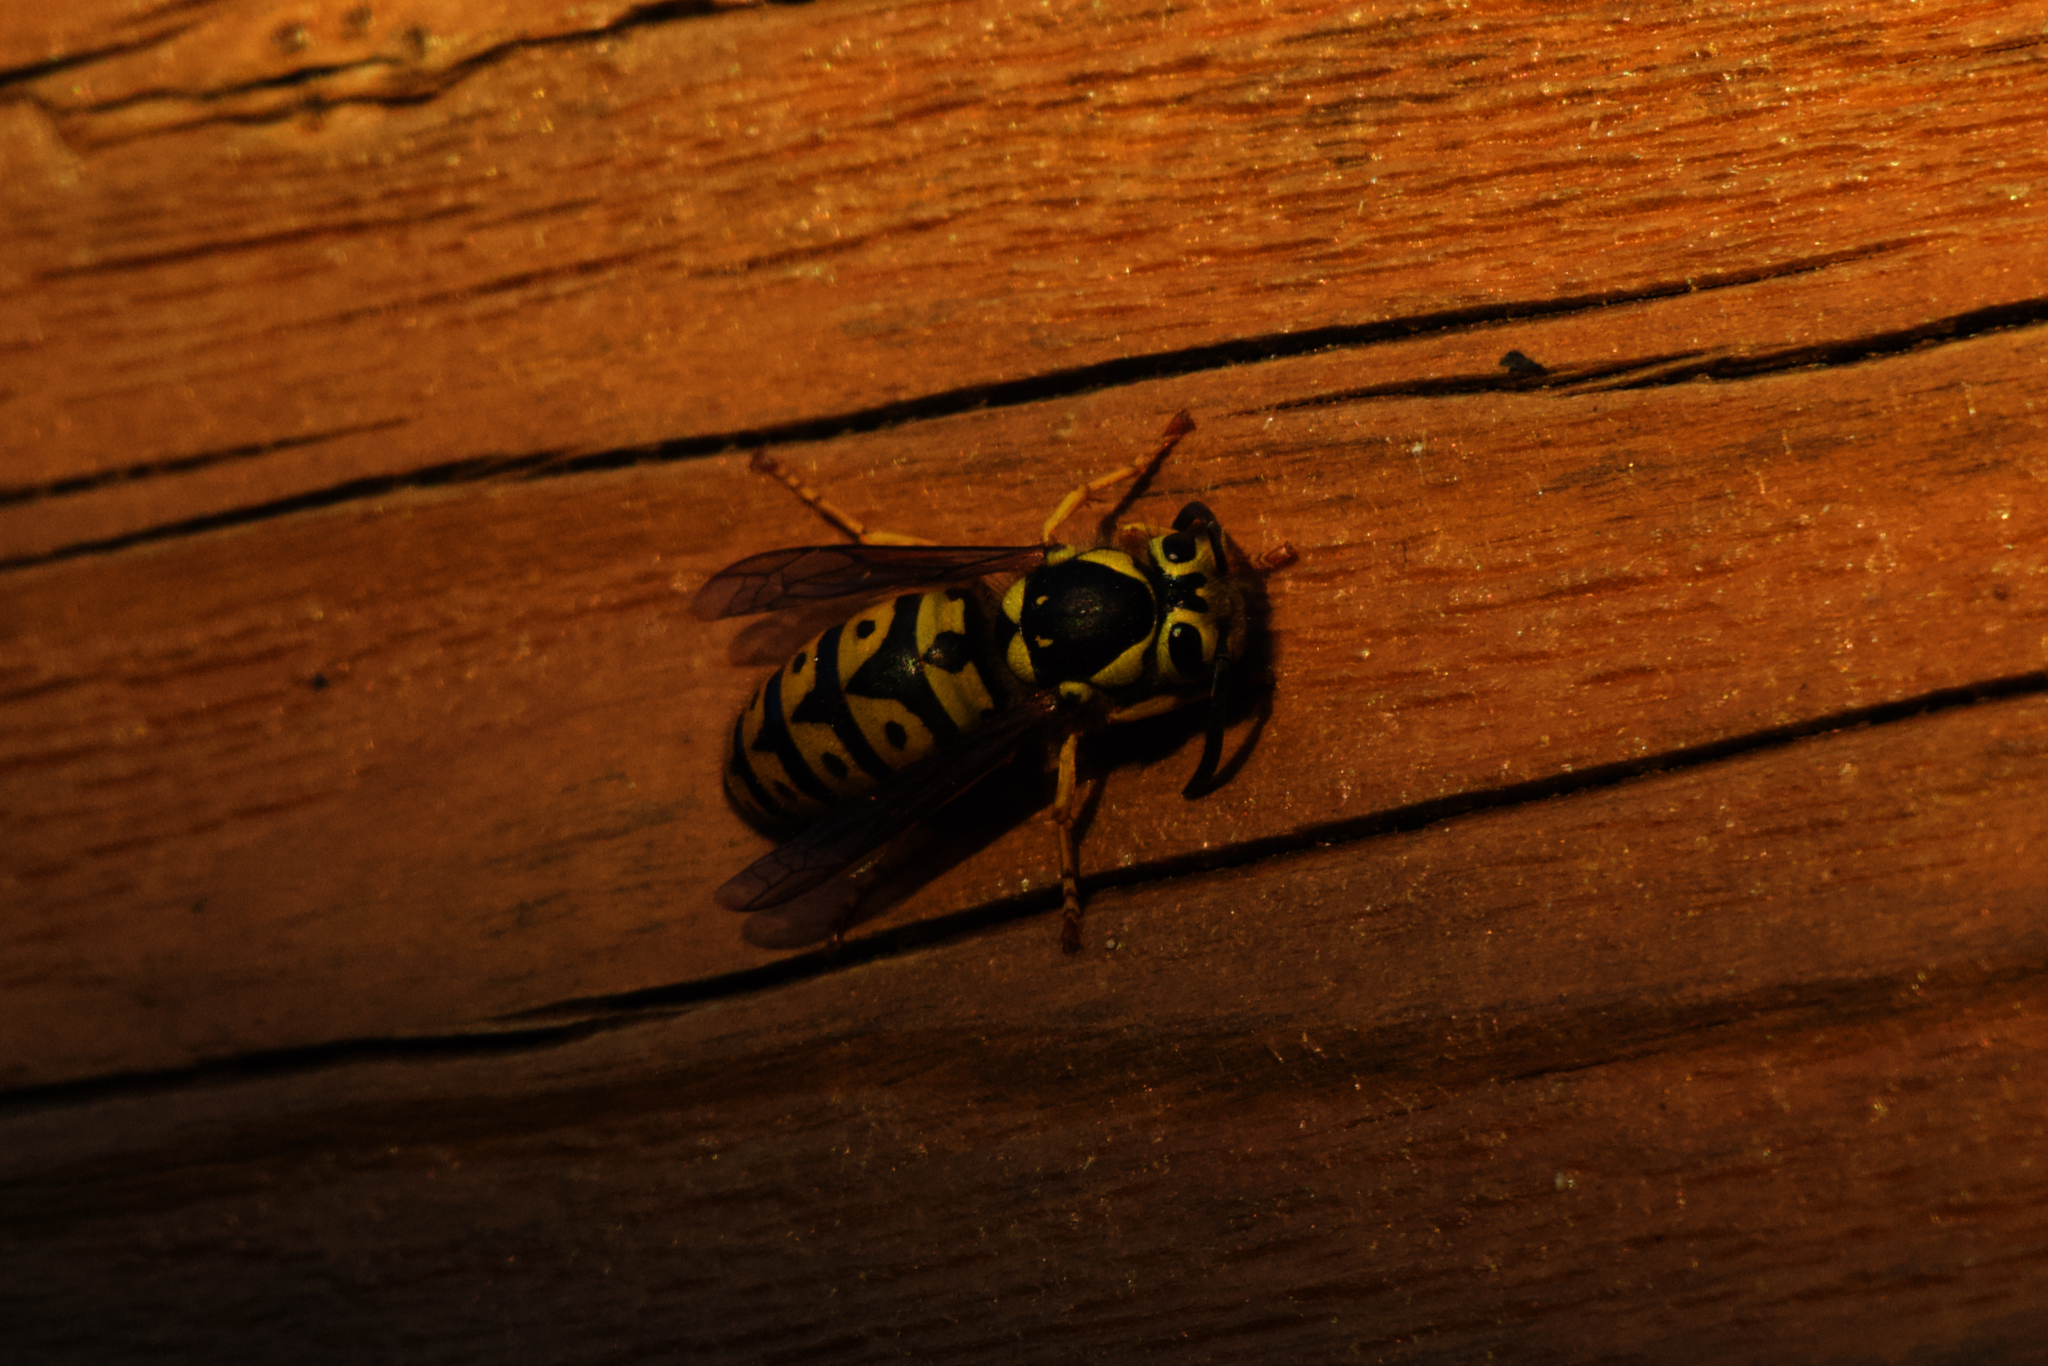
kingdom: Animalia
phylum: Arthropoda
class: Insecta
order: Hymenoptera
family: Vespidae
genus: Vespula
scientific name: Vespula pensylvanica
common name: Western yellowjacket
